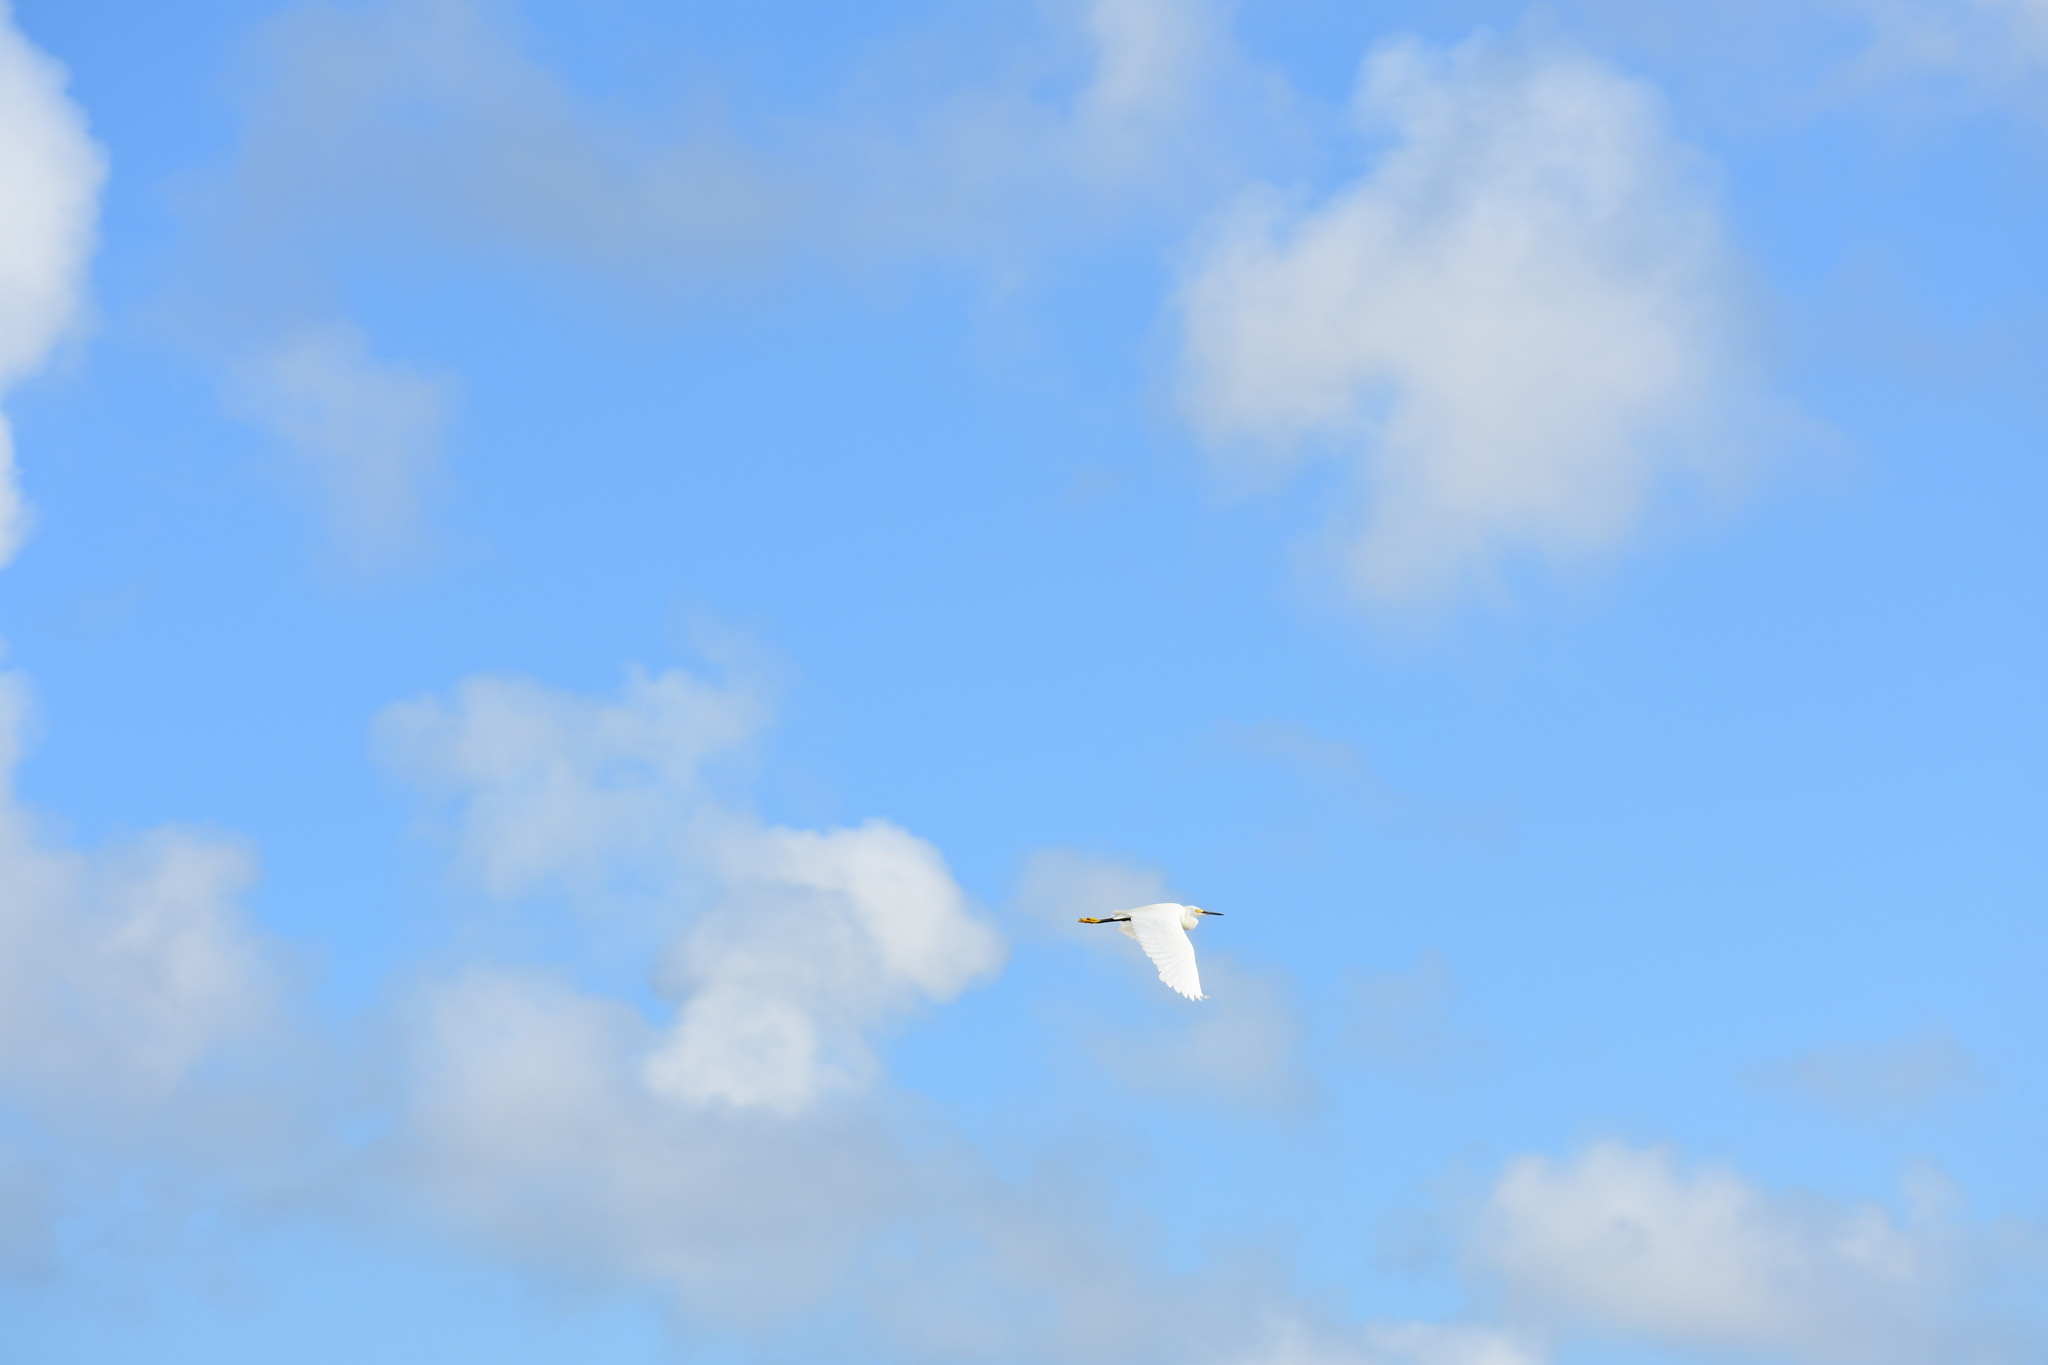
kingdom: Animalia
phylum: Chordata
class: Aves
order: Pelecaniformes
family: Ardeidae
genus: Egretta
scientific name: Egretta thula
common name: Snowy egret
